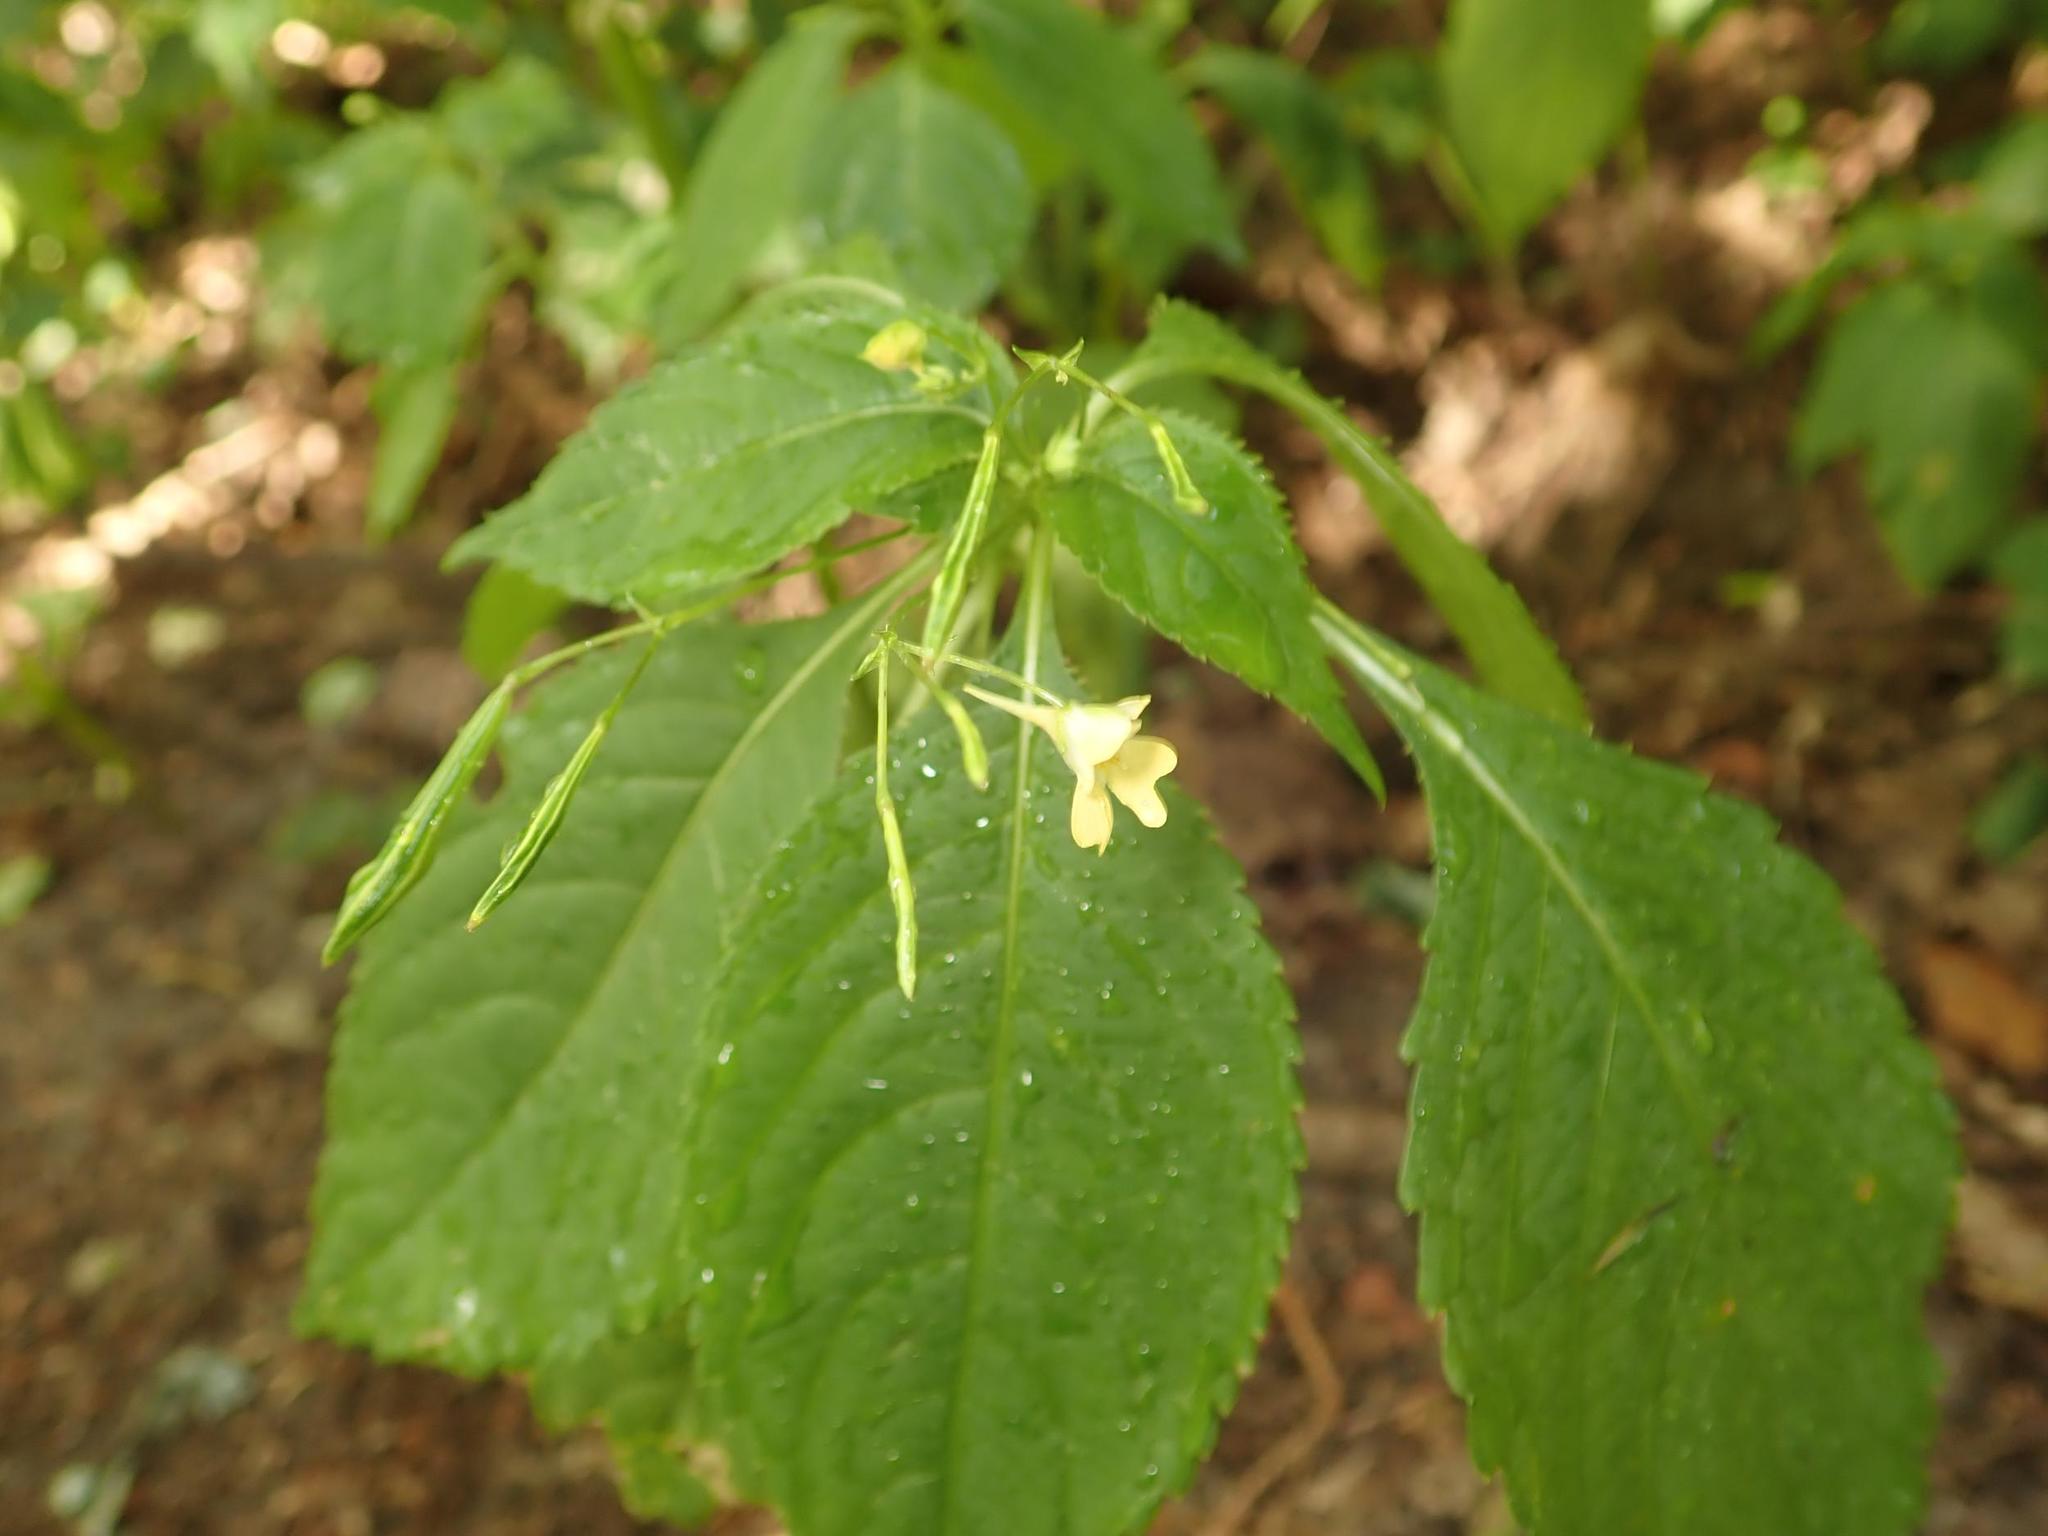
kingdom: Plantae
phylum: Tracheophyta
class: Magnoliopsida
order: Ericales
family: Balsaminaceae
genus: Impatiens
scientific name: Impatiens parviflora
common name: Small balsam
